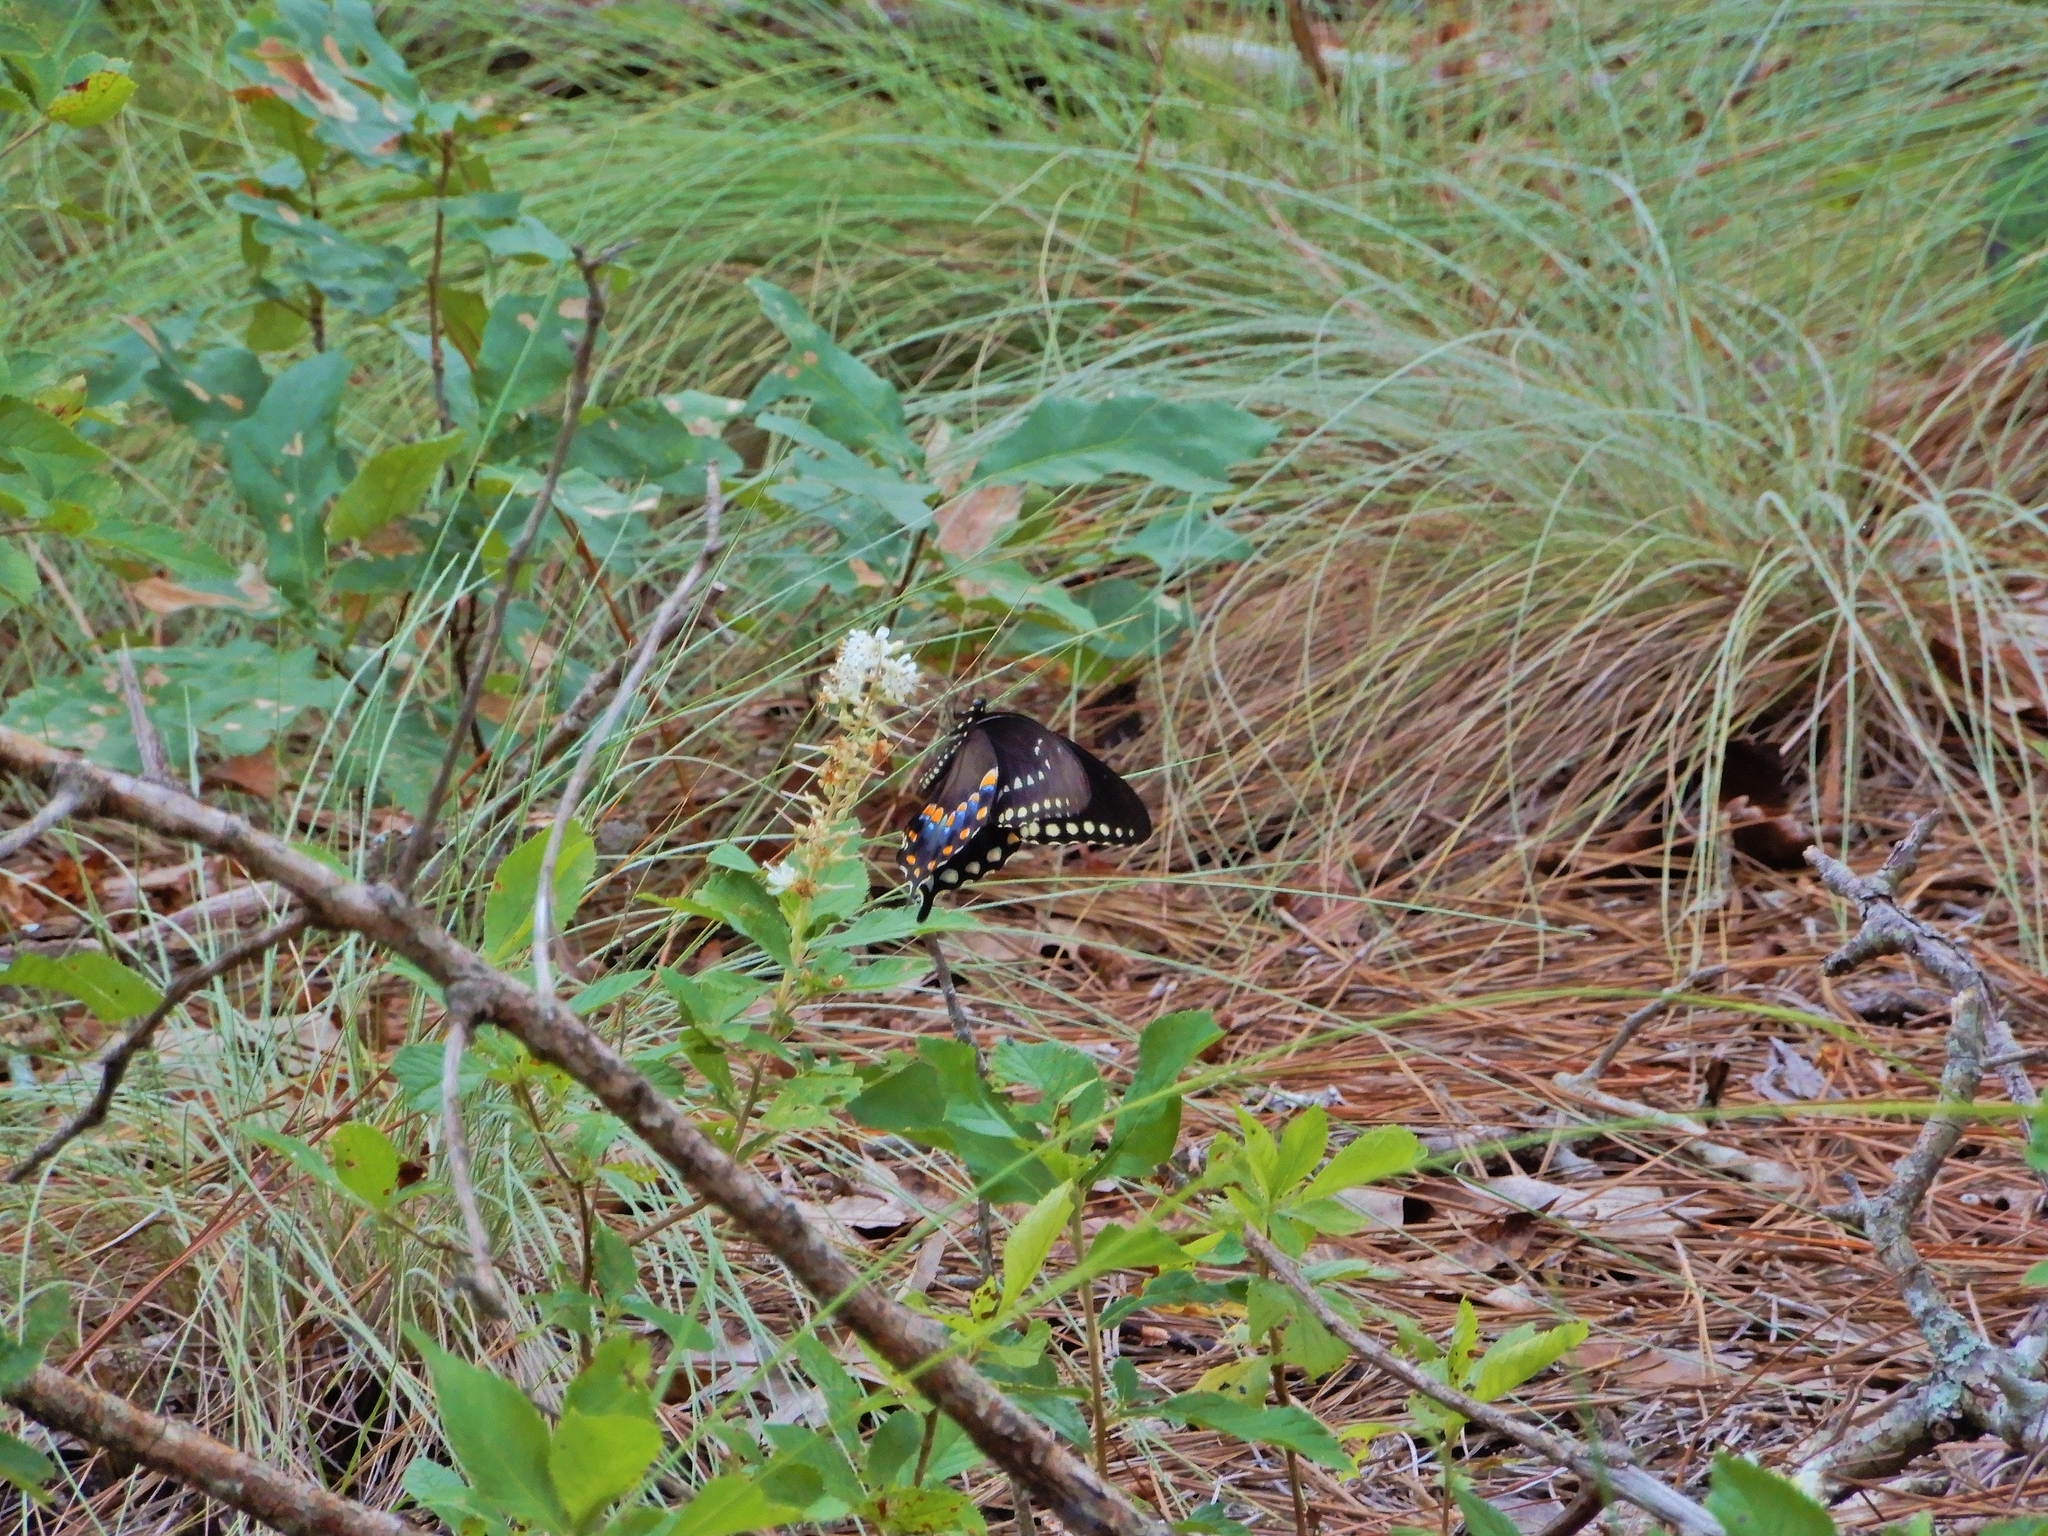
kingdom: Animalia
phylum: Arthropoda
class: Insecta
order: Lepidoptera
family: Papilionidae
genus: Papilio
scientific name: Papilio troilus
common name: Spicebush swallowtail
